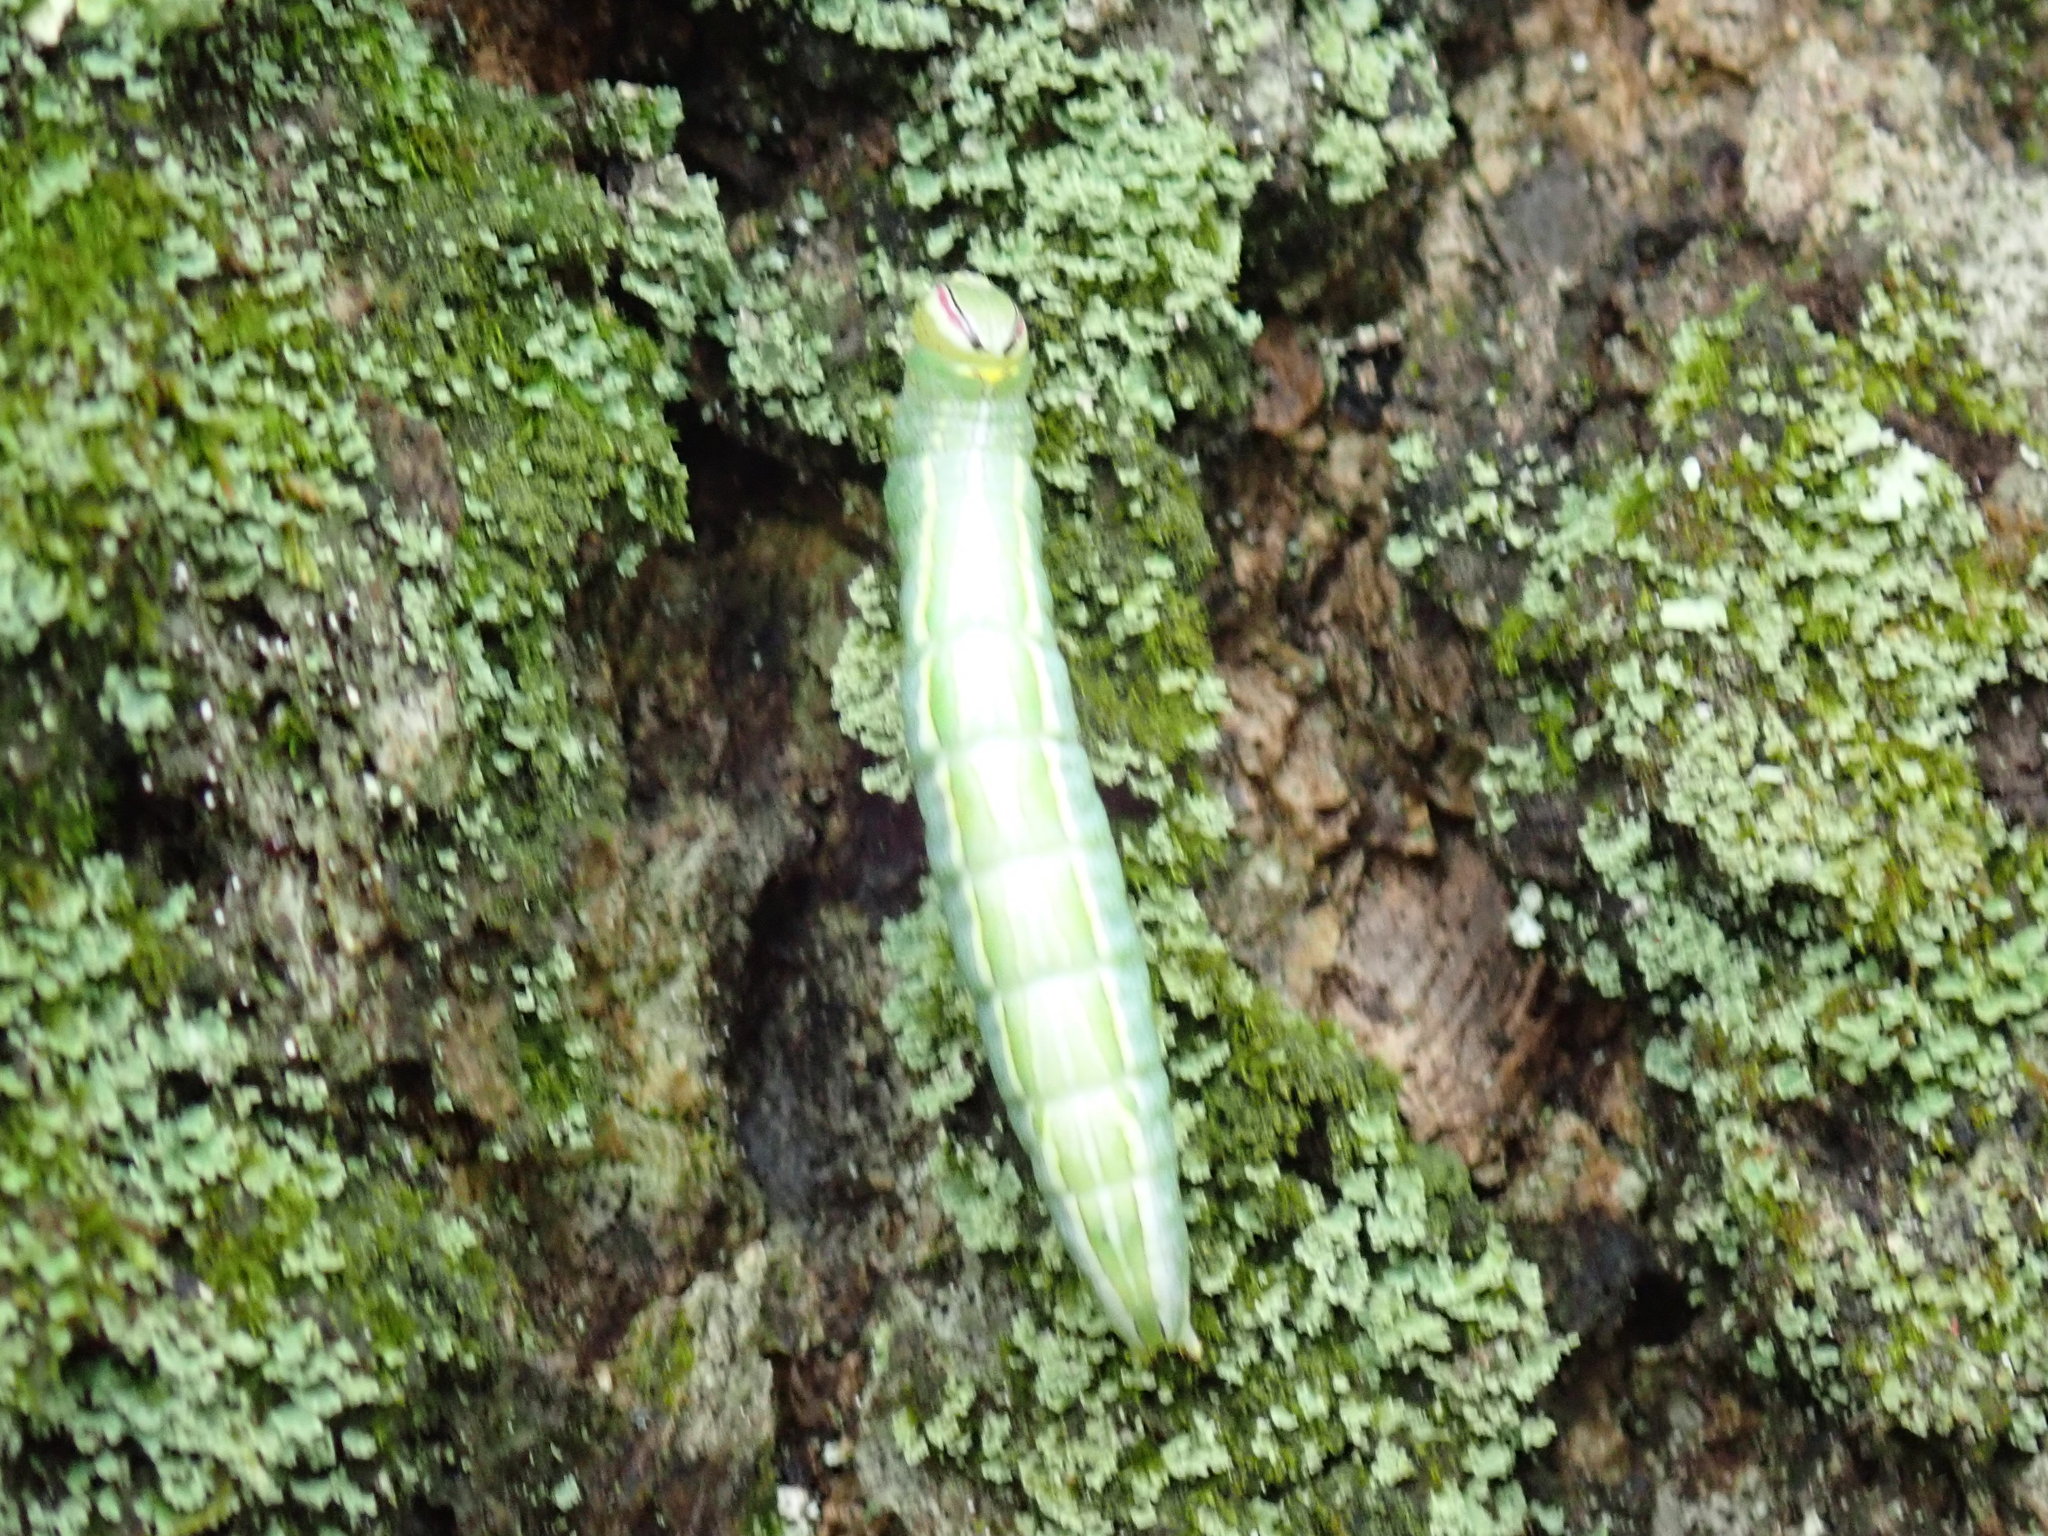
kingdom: Animalia
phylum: Arthropoda
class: Insecta
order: Lepidoptera
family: Notodontidae
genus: Disphragis
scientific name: Disphragis Cecrita guttivitta
